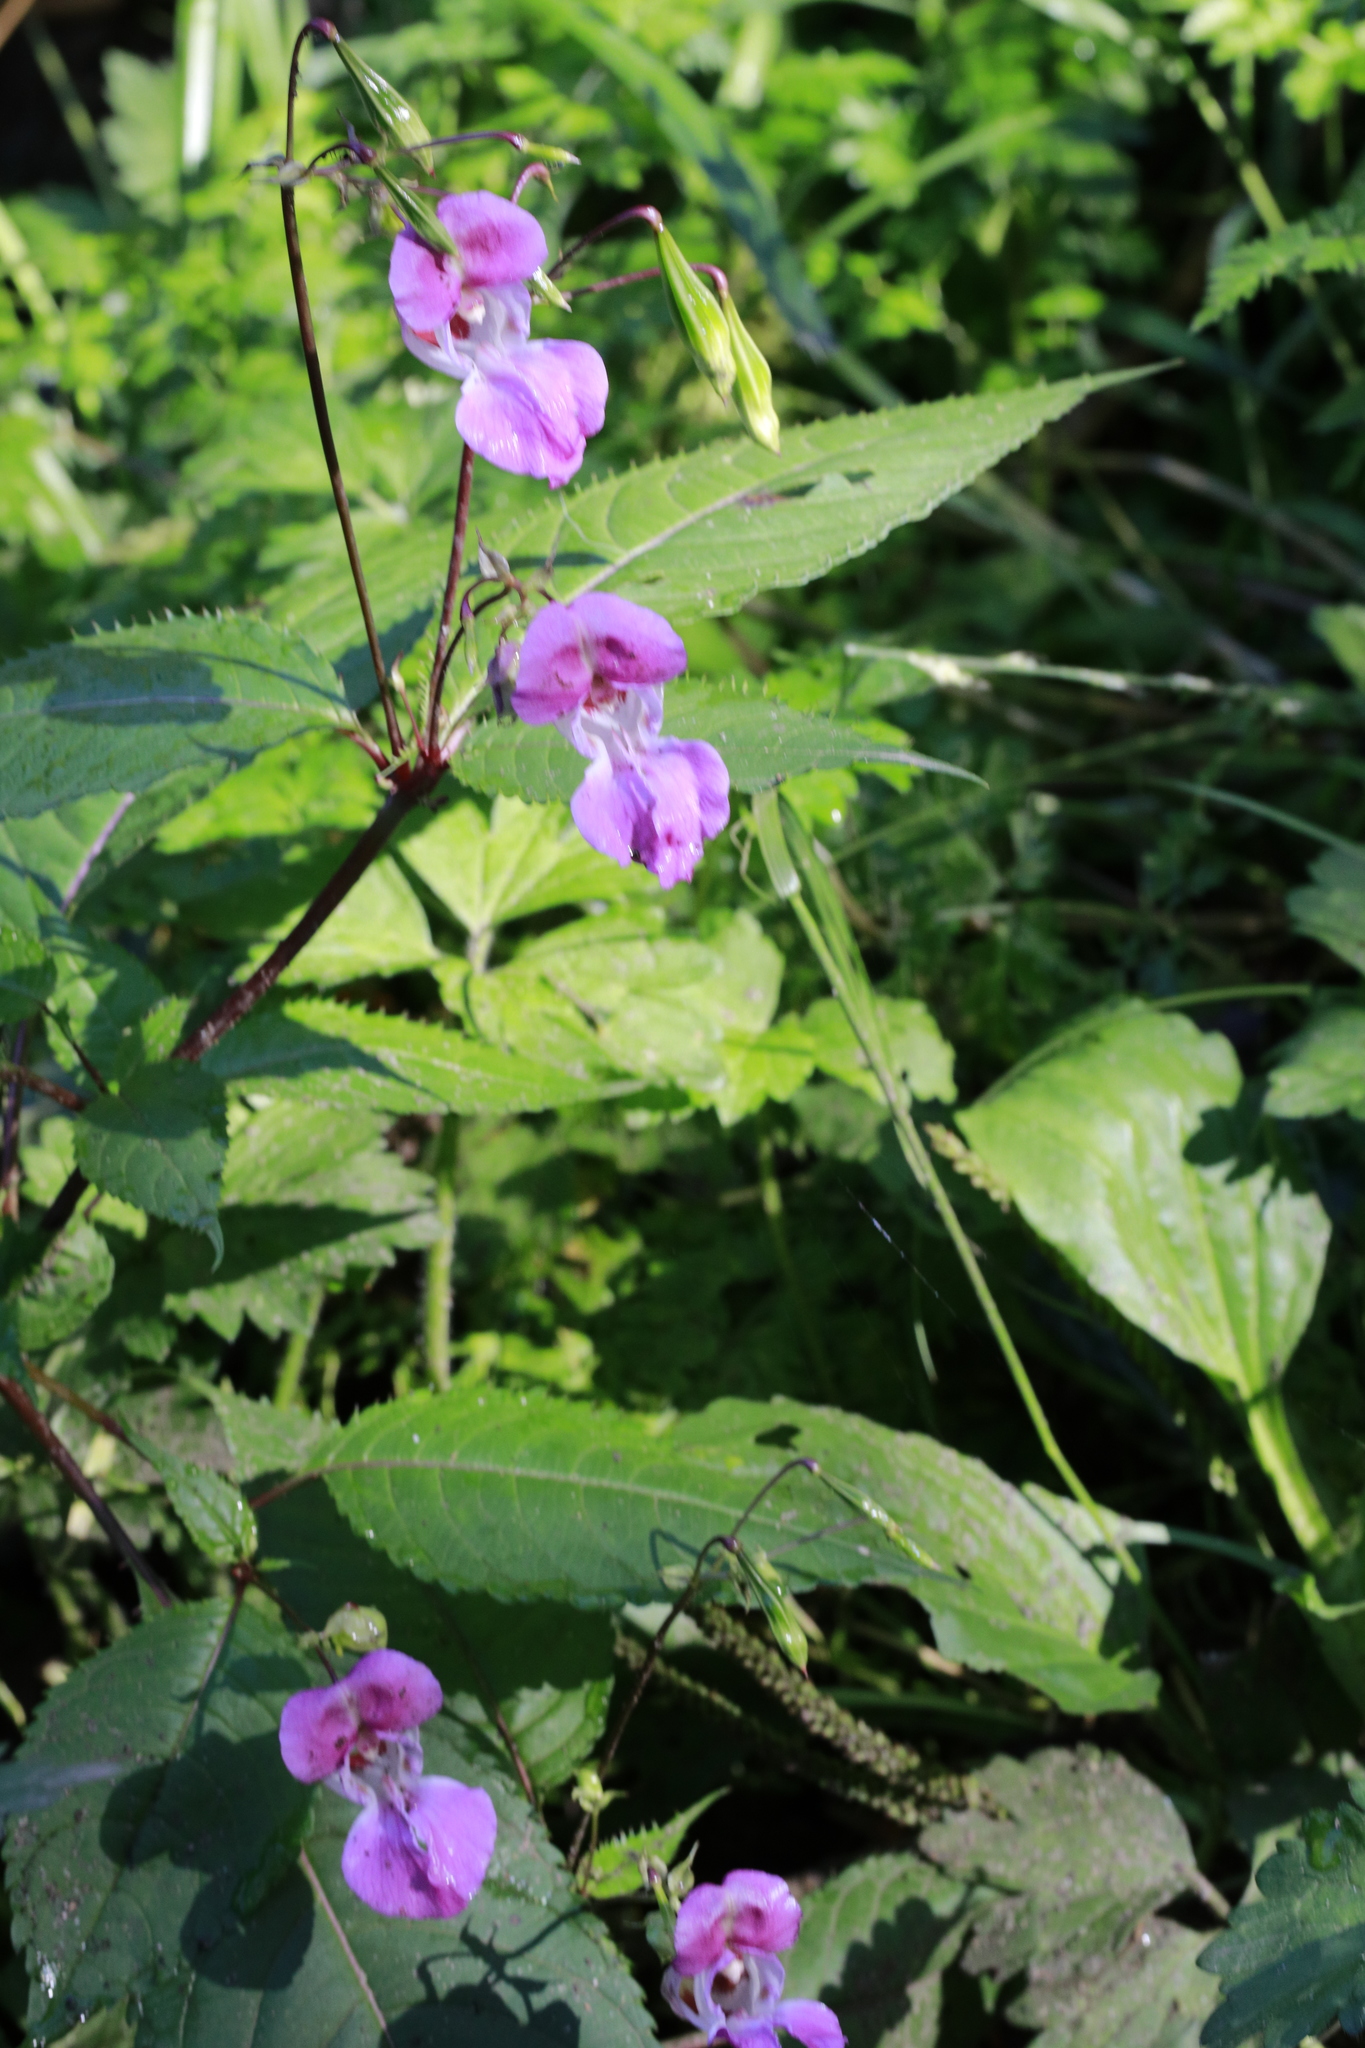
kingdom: Plantae
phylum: Tracheophyta
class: Magnoliopsida
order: Ericales
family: Balsaminaceae
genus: Impatiens
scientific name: Impatiens glandulifera
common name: Himalayan balsam
